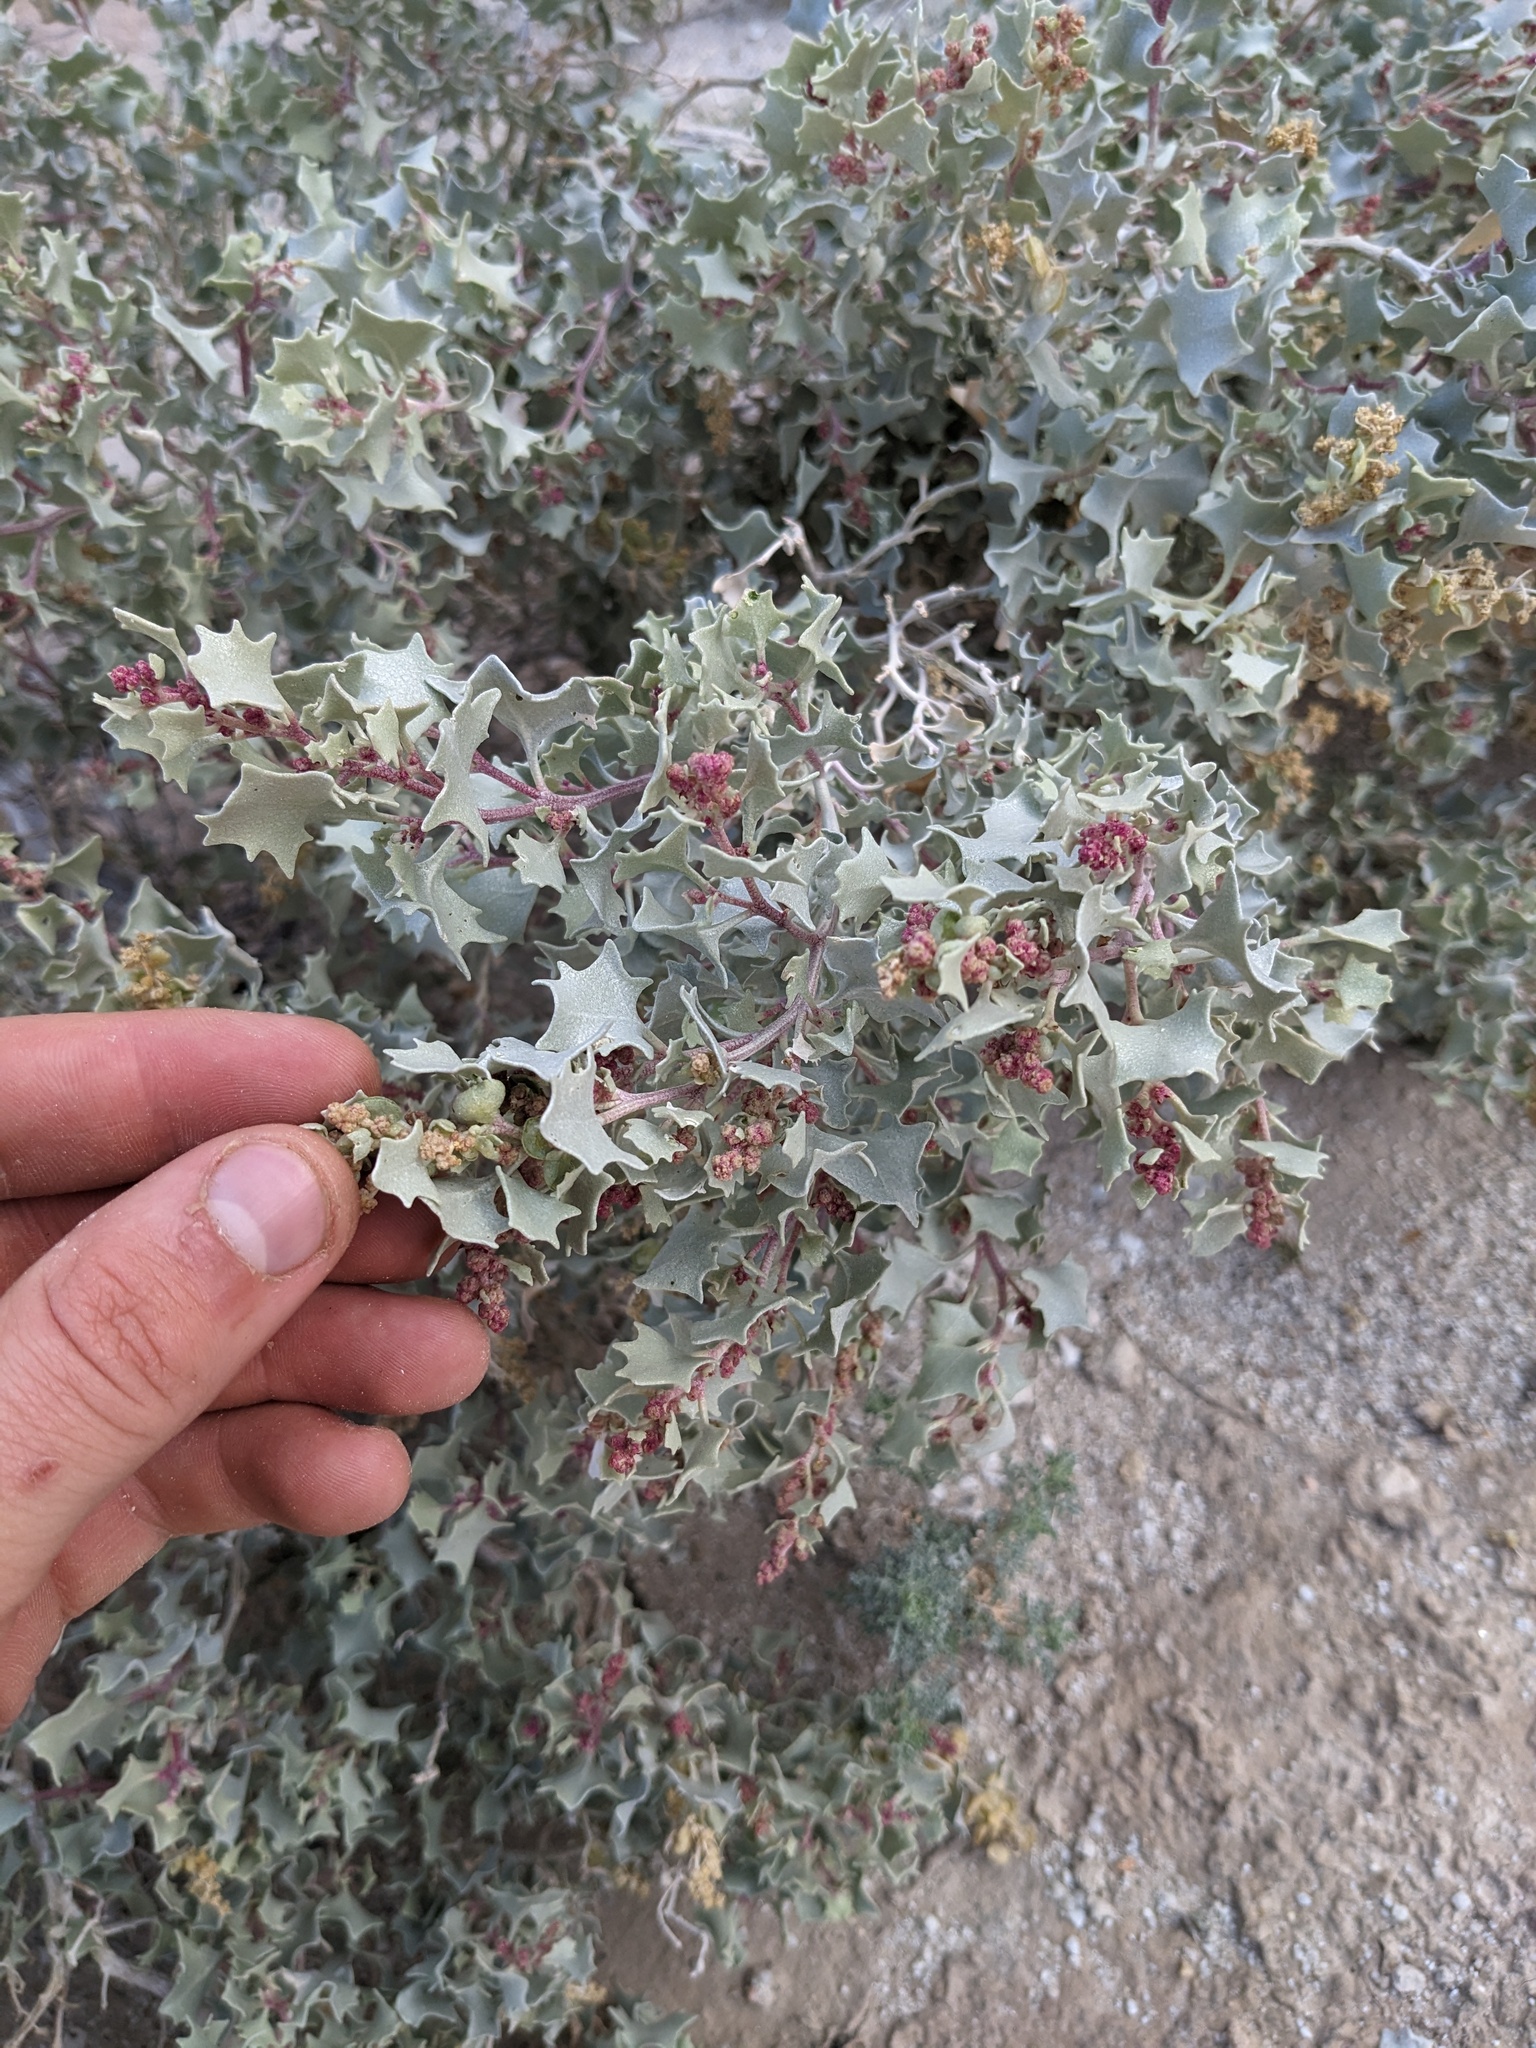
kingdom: Plantae
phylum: Tracheophyta
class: Magnoliopsida
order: Caryophyllales
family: Amaranthaceae
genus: Atriplex
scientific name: Atriplex hymenelytra
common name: Desert-holly
